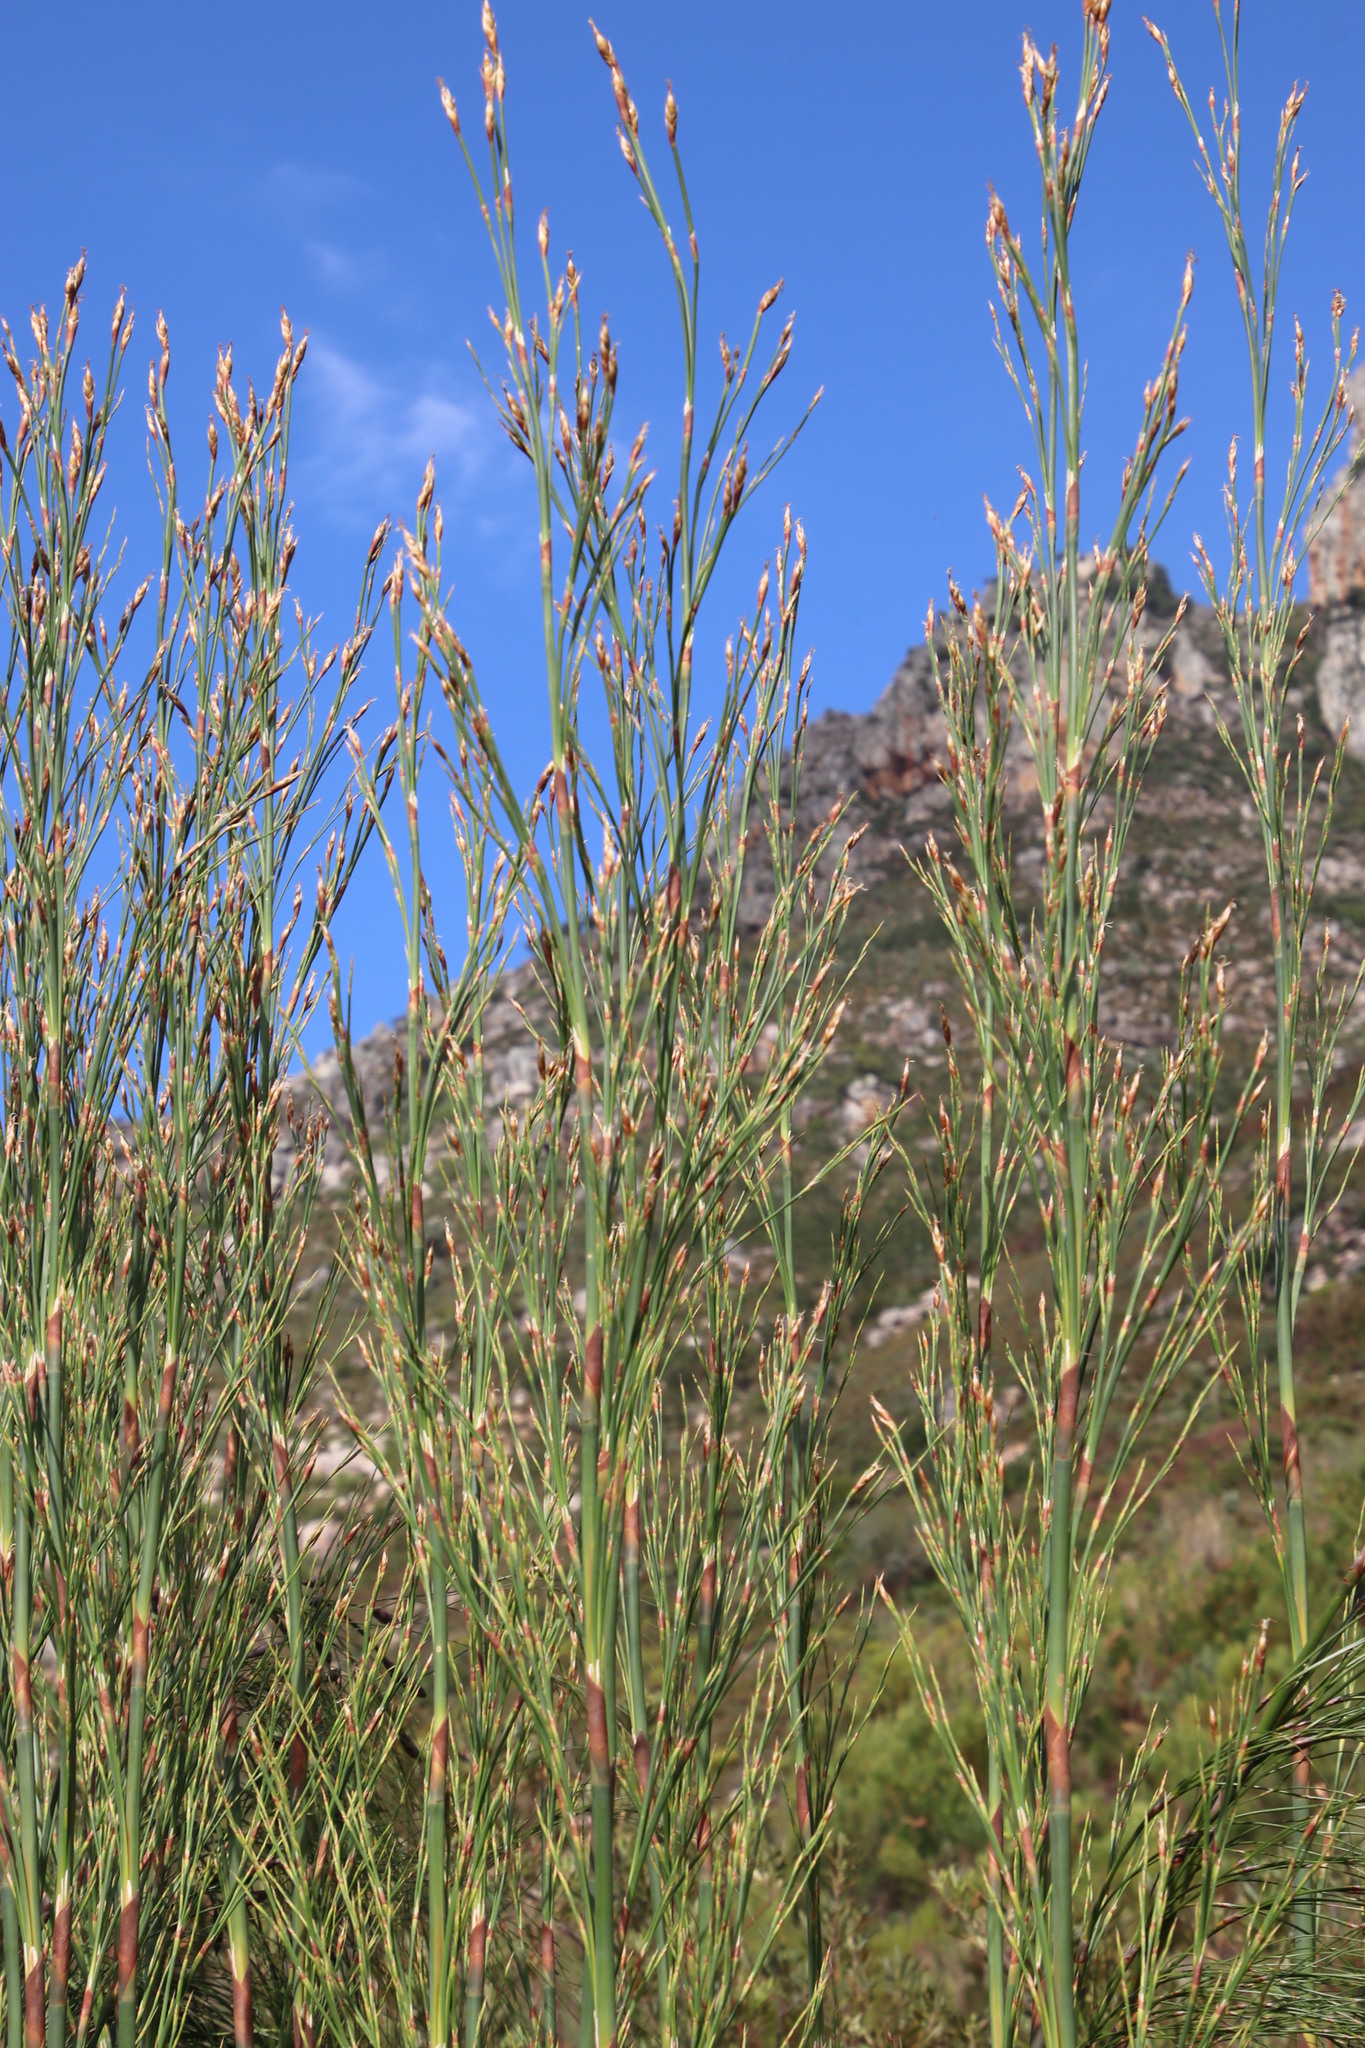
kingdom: Plantae
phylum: Tracheophyta
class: Liliopsida
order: Poales
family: Restionaceae
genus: Cannomois
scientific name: Cannomois grandis
